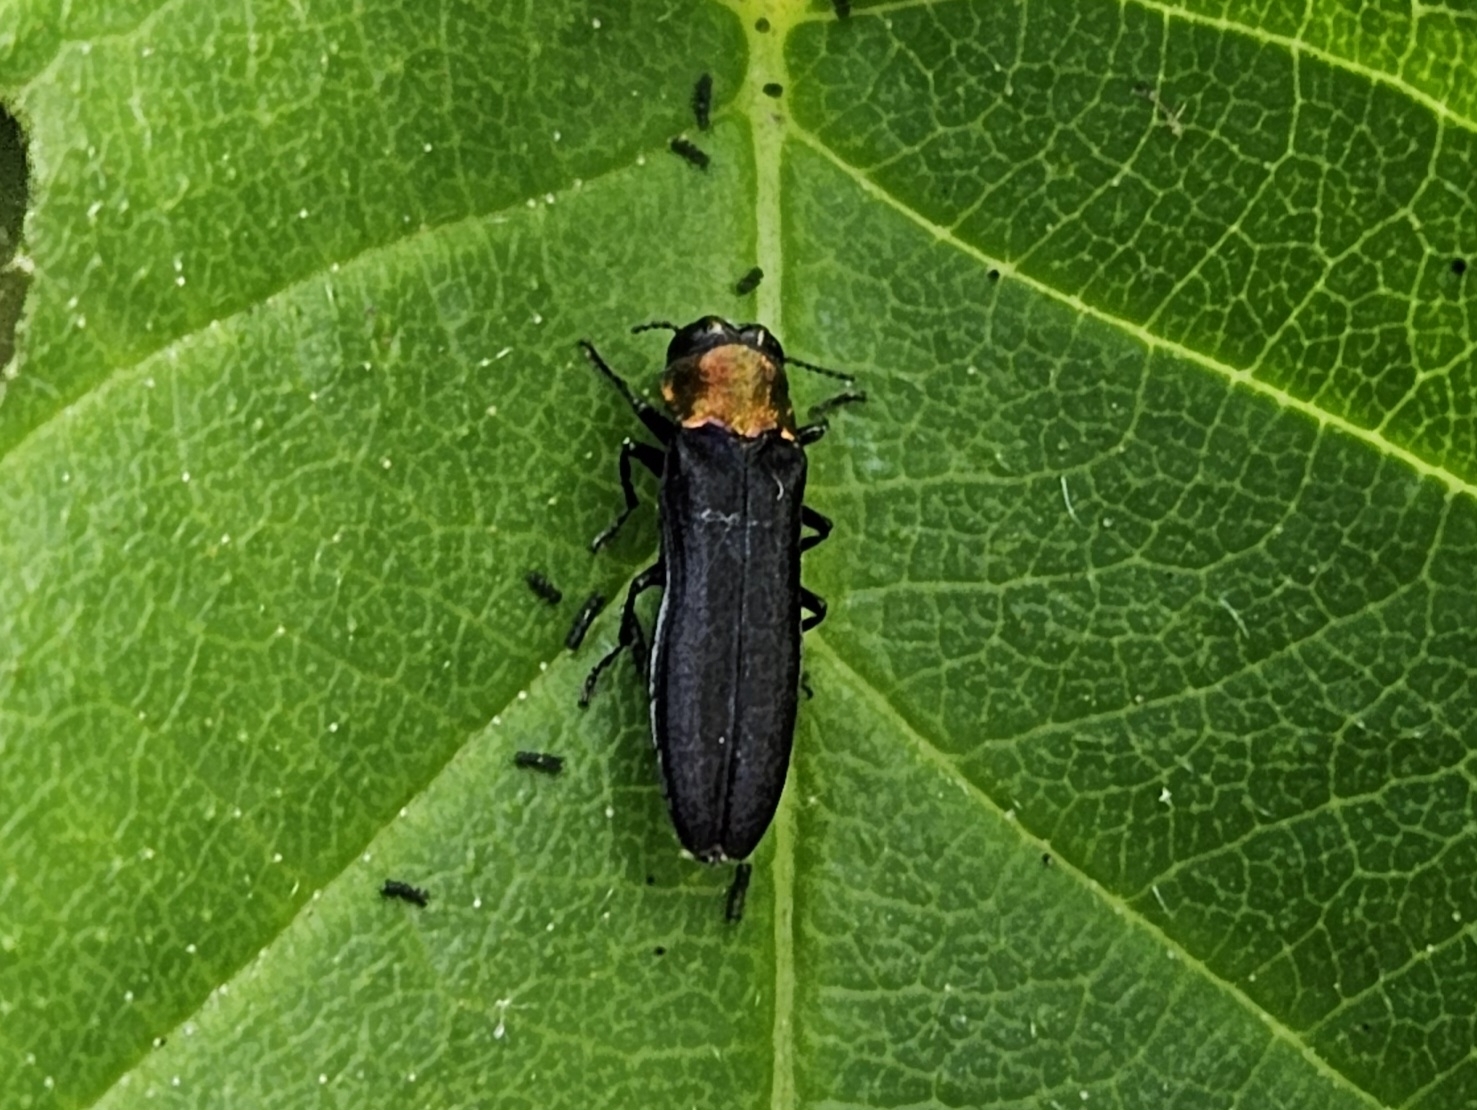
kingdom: Animalia
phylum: Arthropoda
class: Insecta
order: Coleoptera
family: Buprestidae
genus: Agrilus
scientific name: Agrilus ruficollis
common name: Red-necked cane borer beetle
